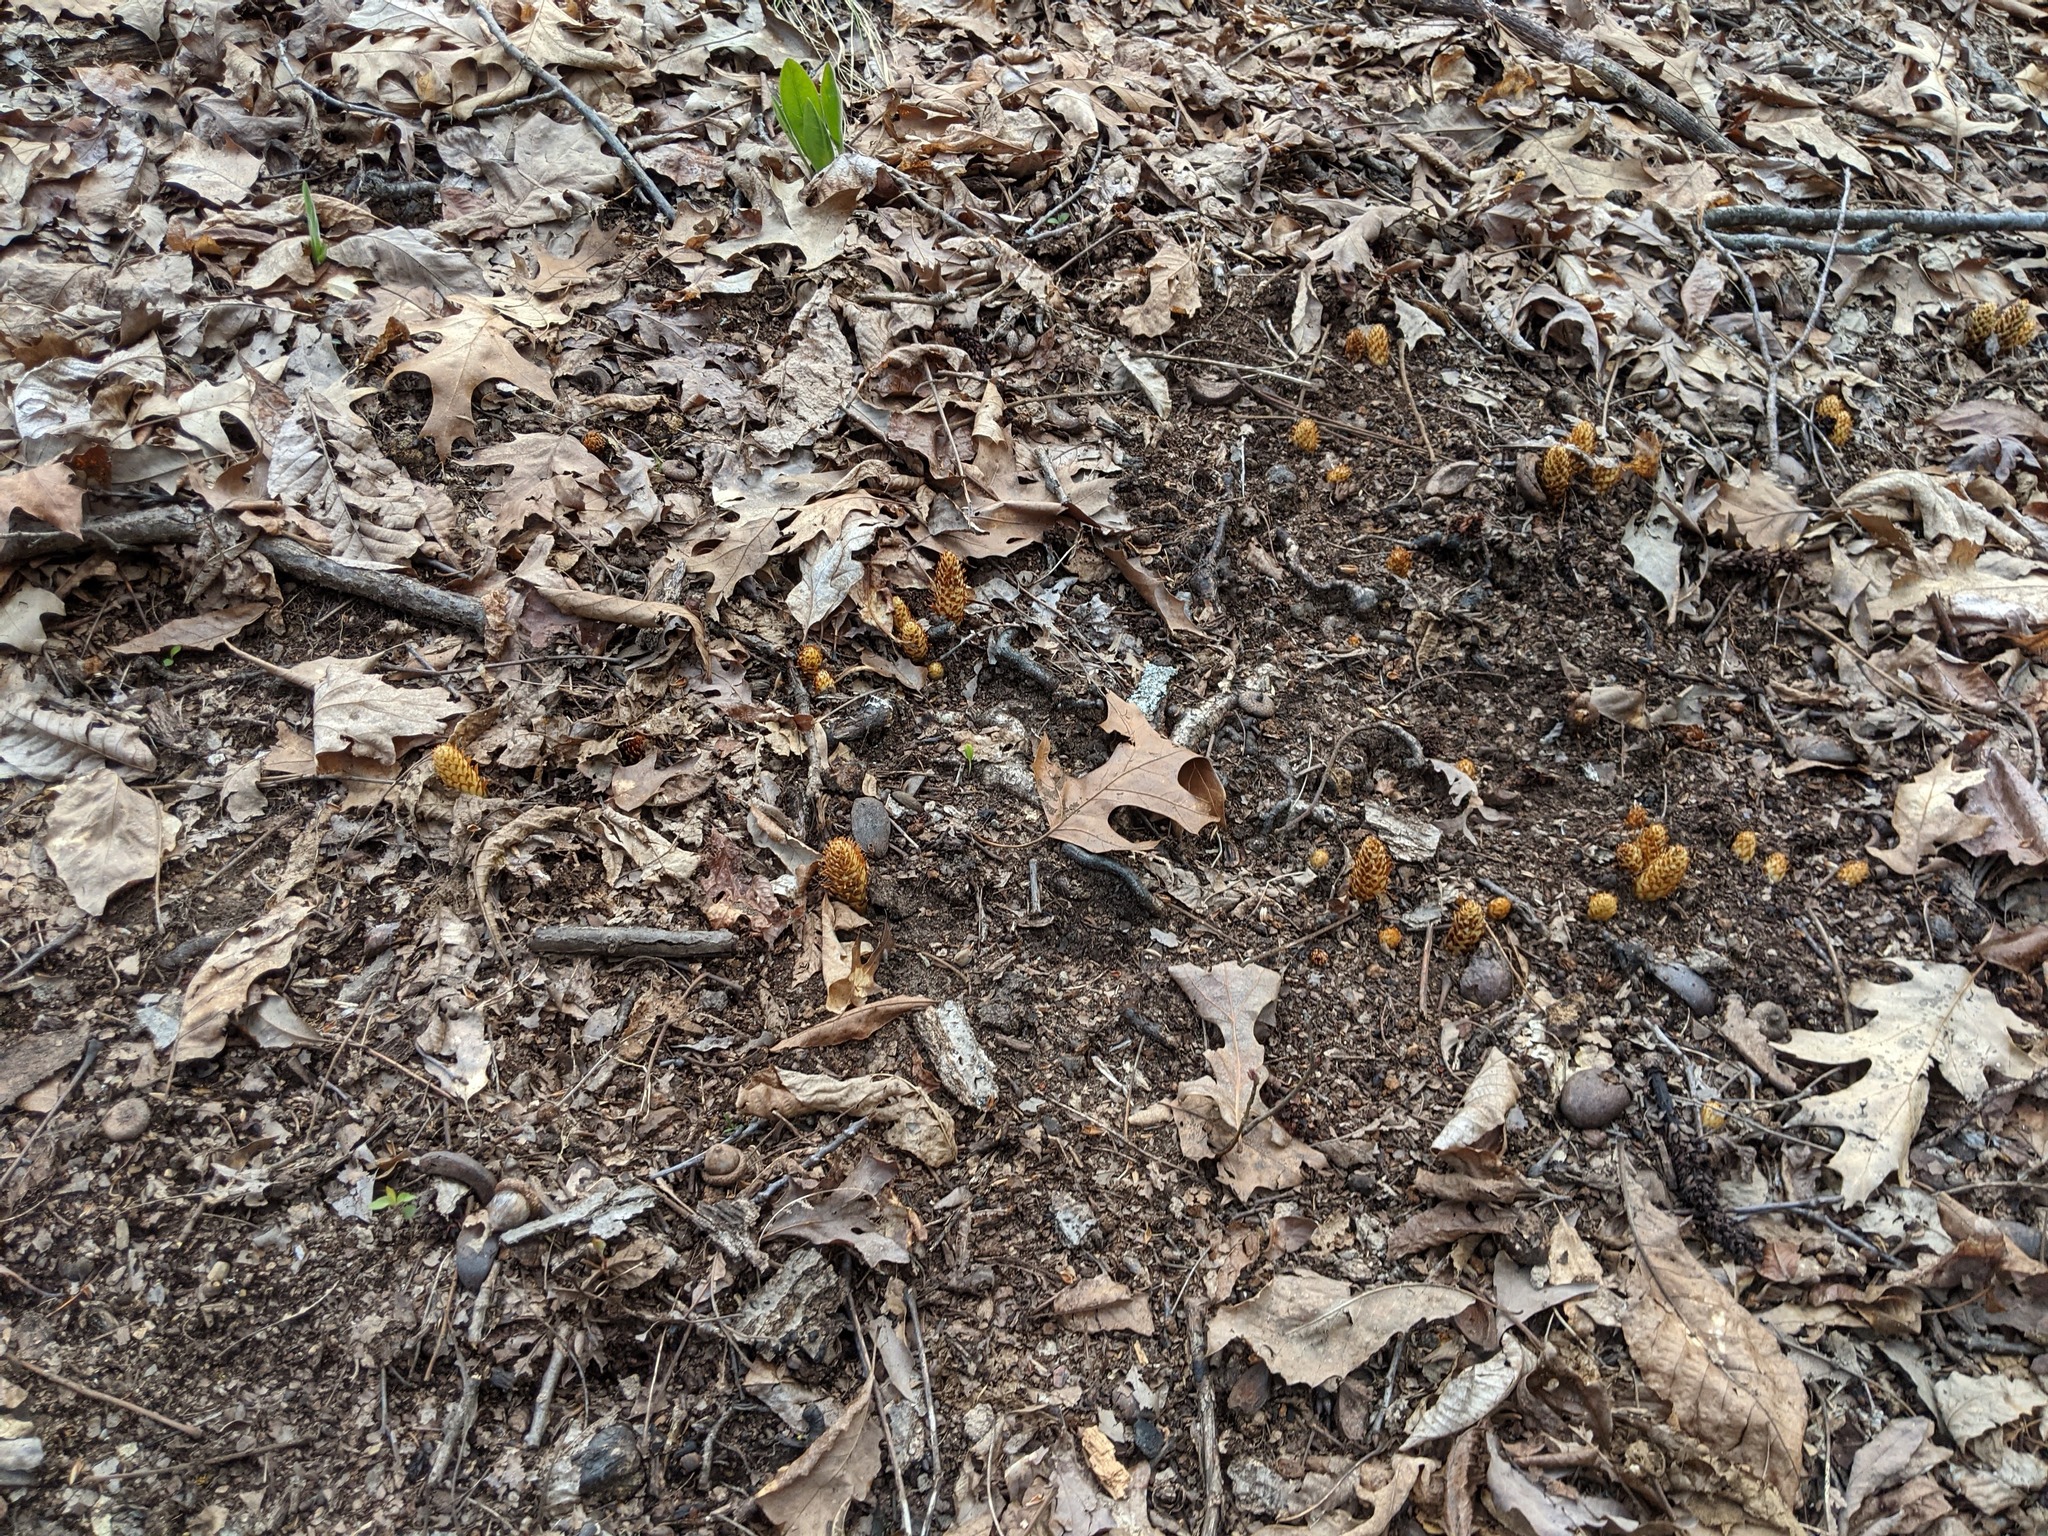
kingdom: Plantae
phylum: Tracheophyta
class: Magnoliopsida
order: Lamiales
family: Orobanchaceae
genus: Conopholis
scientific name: Conopholis americana
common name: American cancer-root
